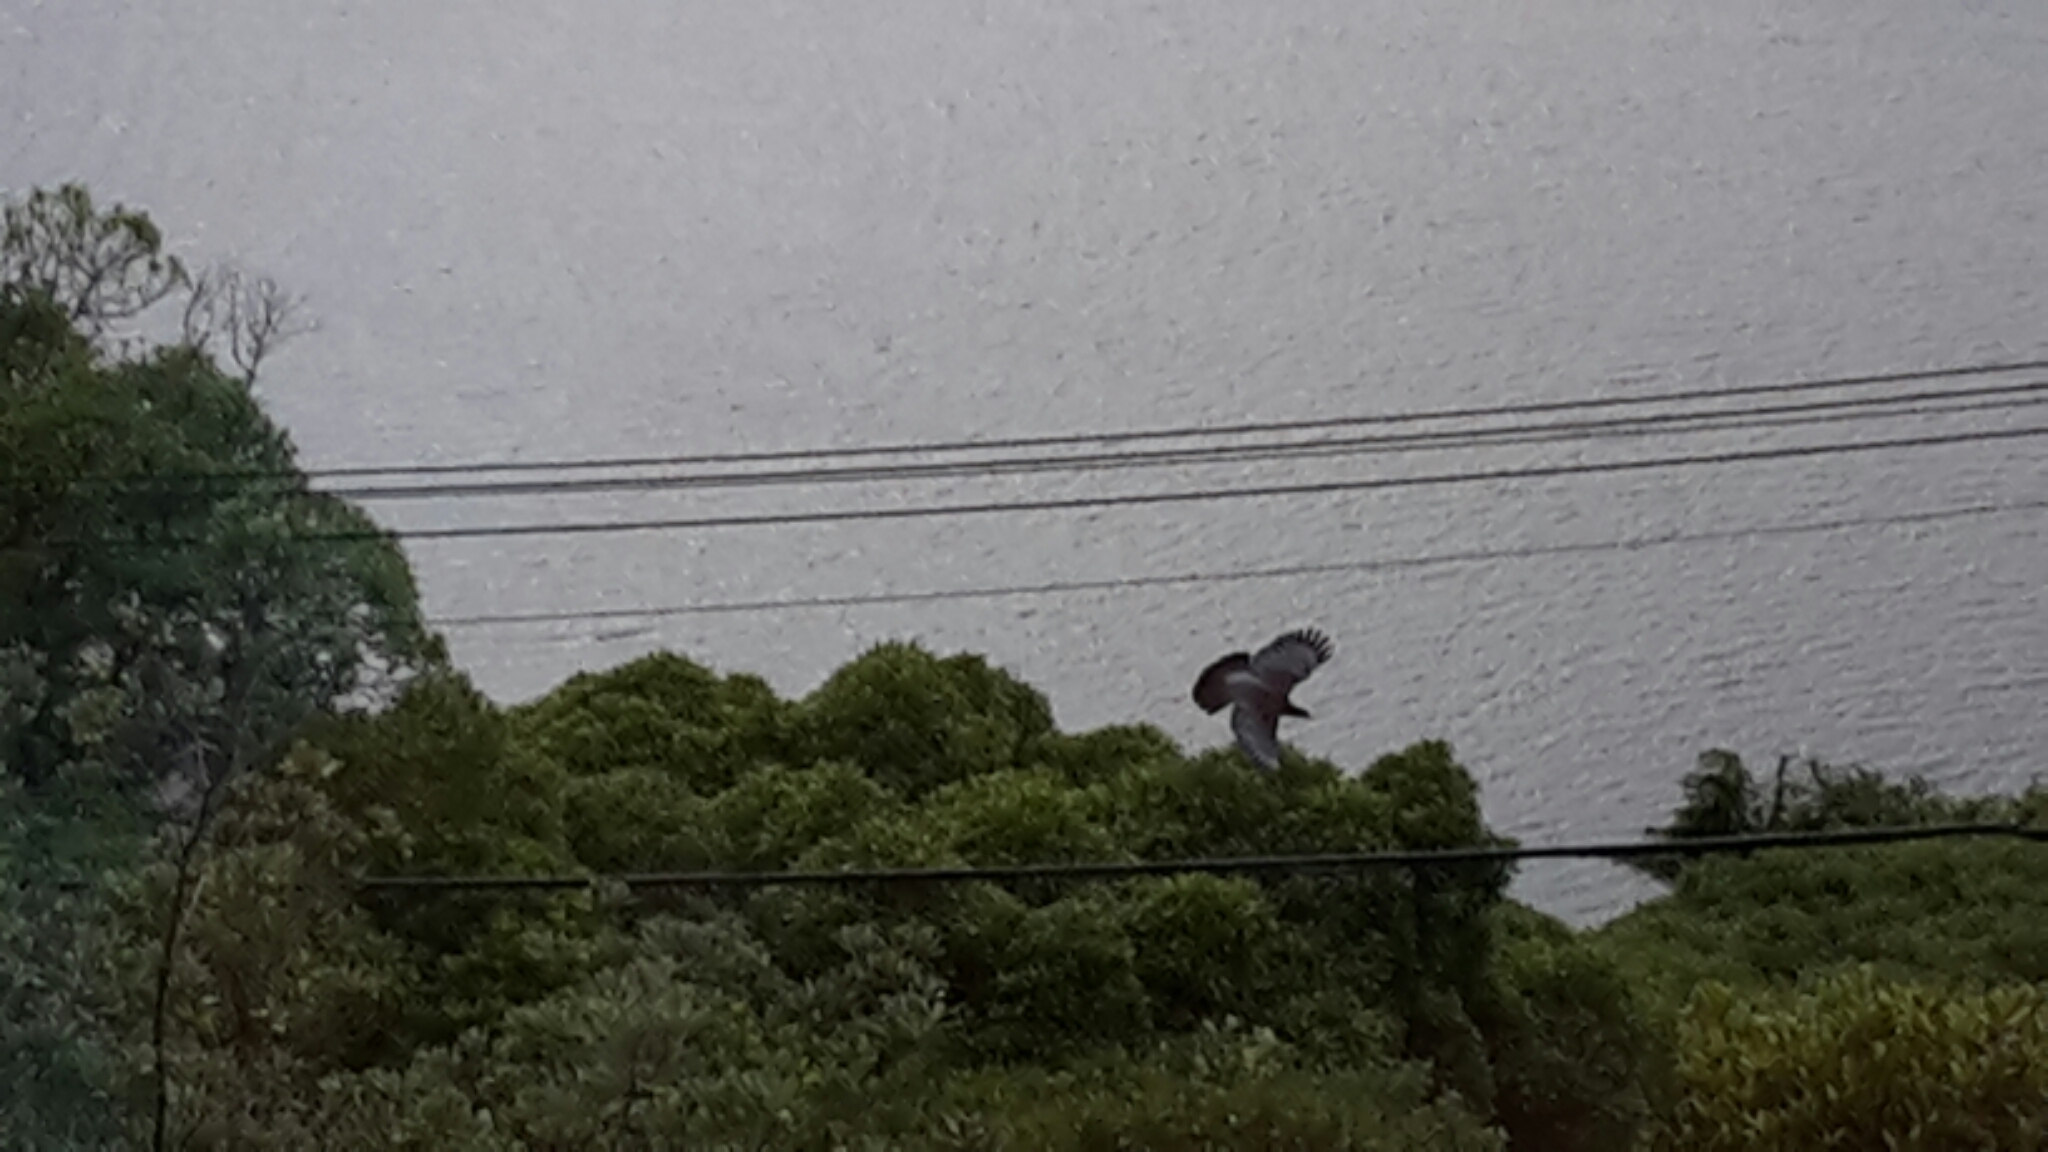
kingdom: Animalia
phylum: Chordata
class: Aves
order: Columbiformes
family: Columbidae
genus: Hemiphaga
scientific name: Hemiphaga novaeseelandiae
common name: New zealand pigeon
